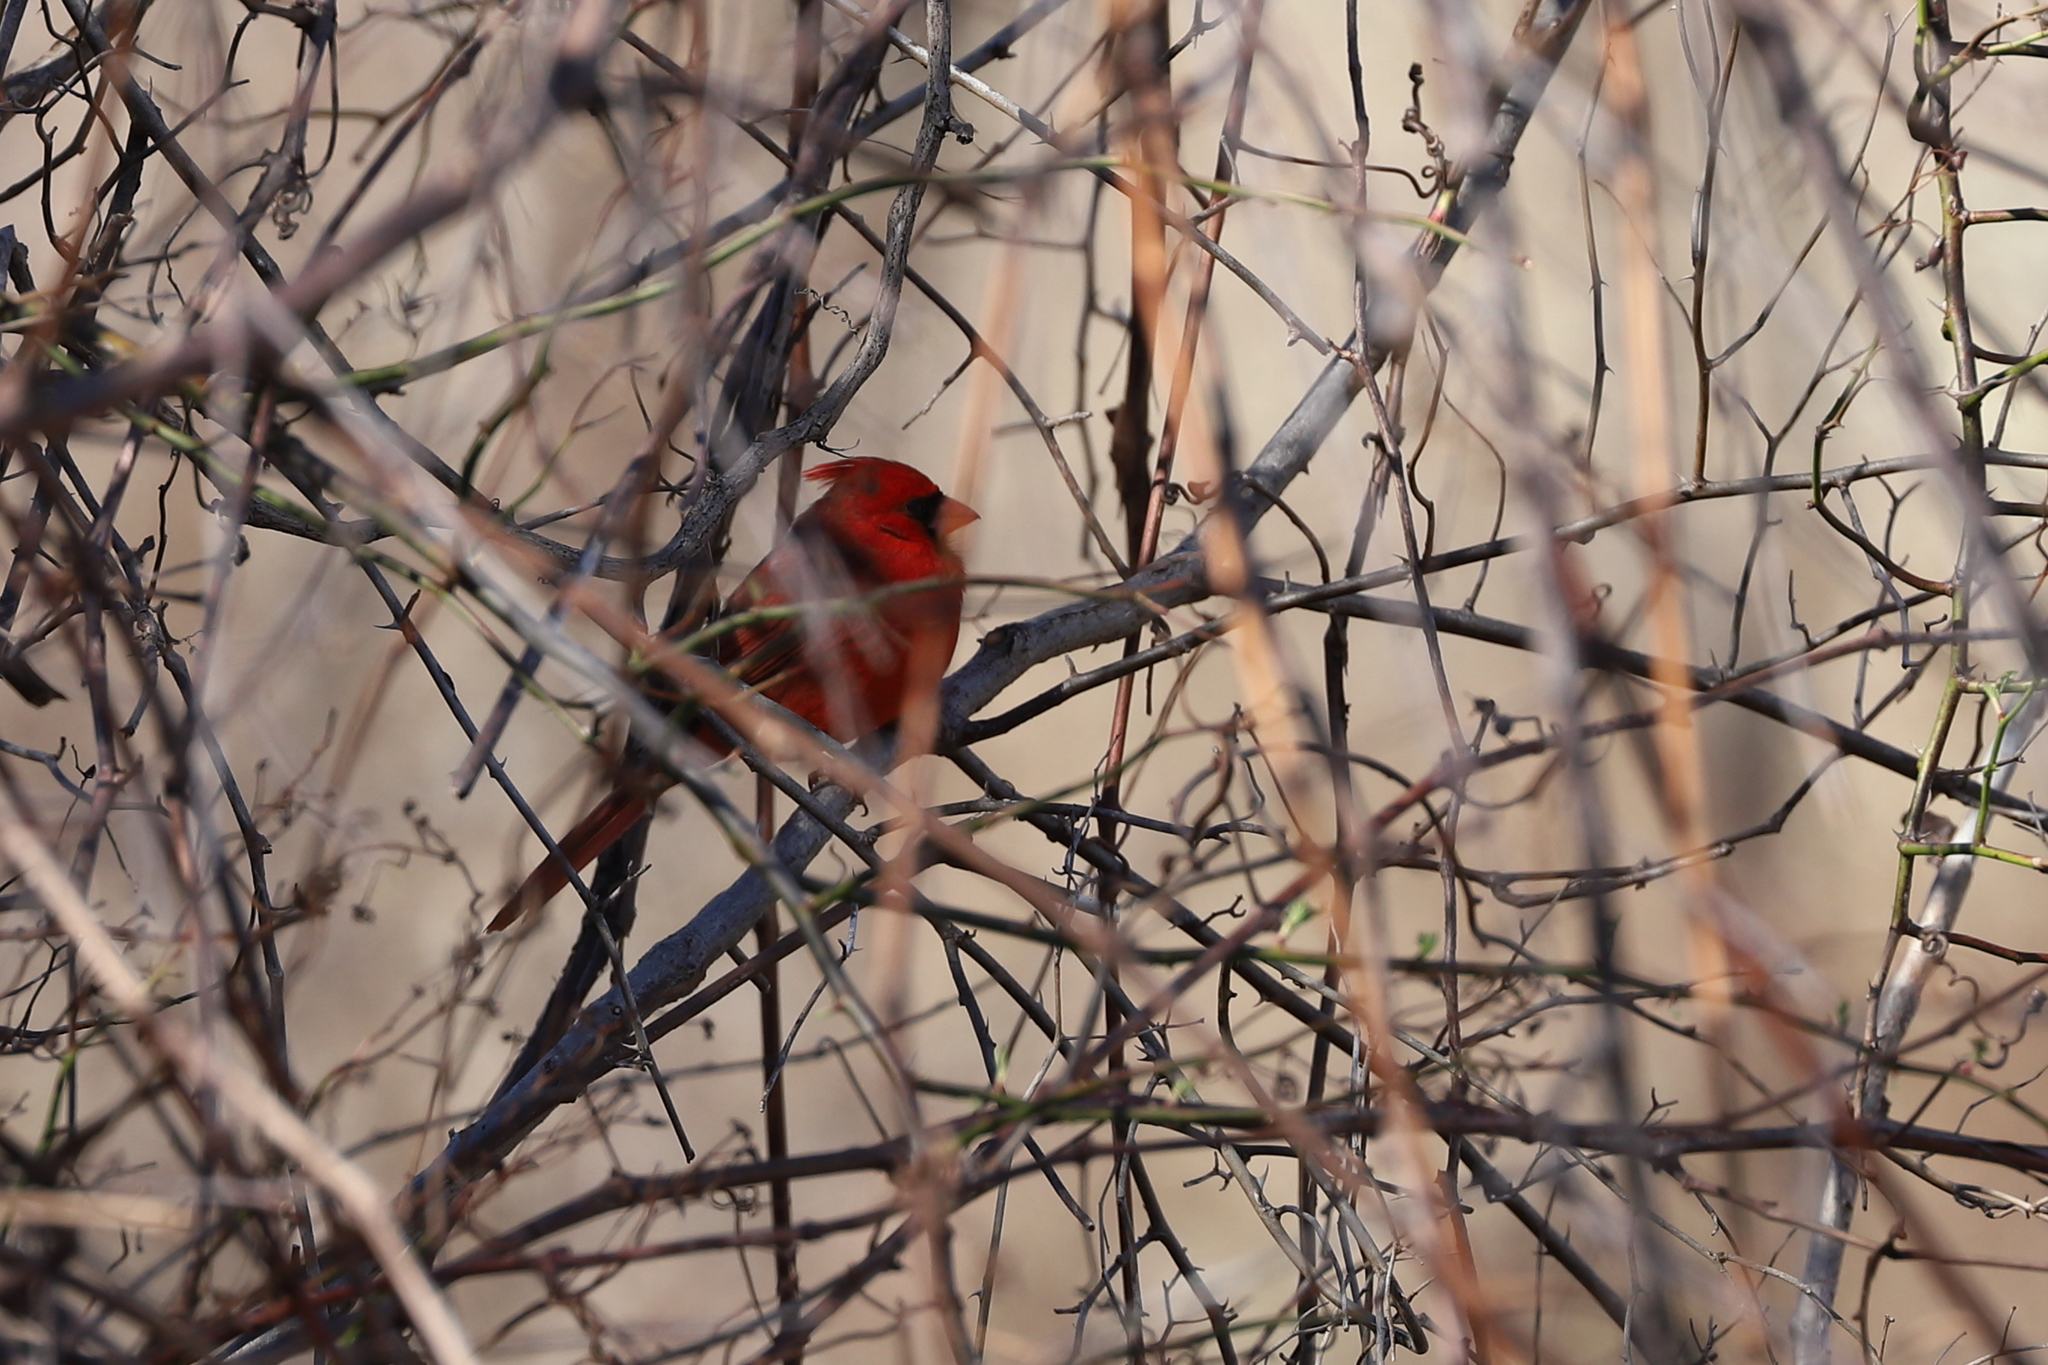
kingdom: Animalia
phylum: Chordata
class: Aves
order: Passeriformes
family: Cardinalidae
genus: Cardinalis
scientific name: Cardinalis cardinalis
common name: Northern cardinal
